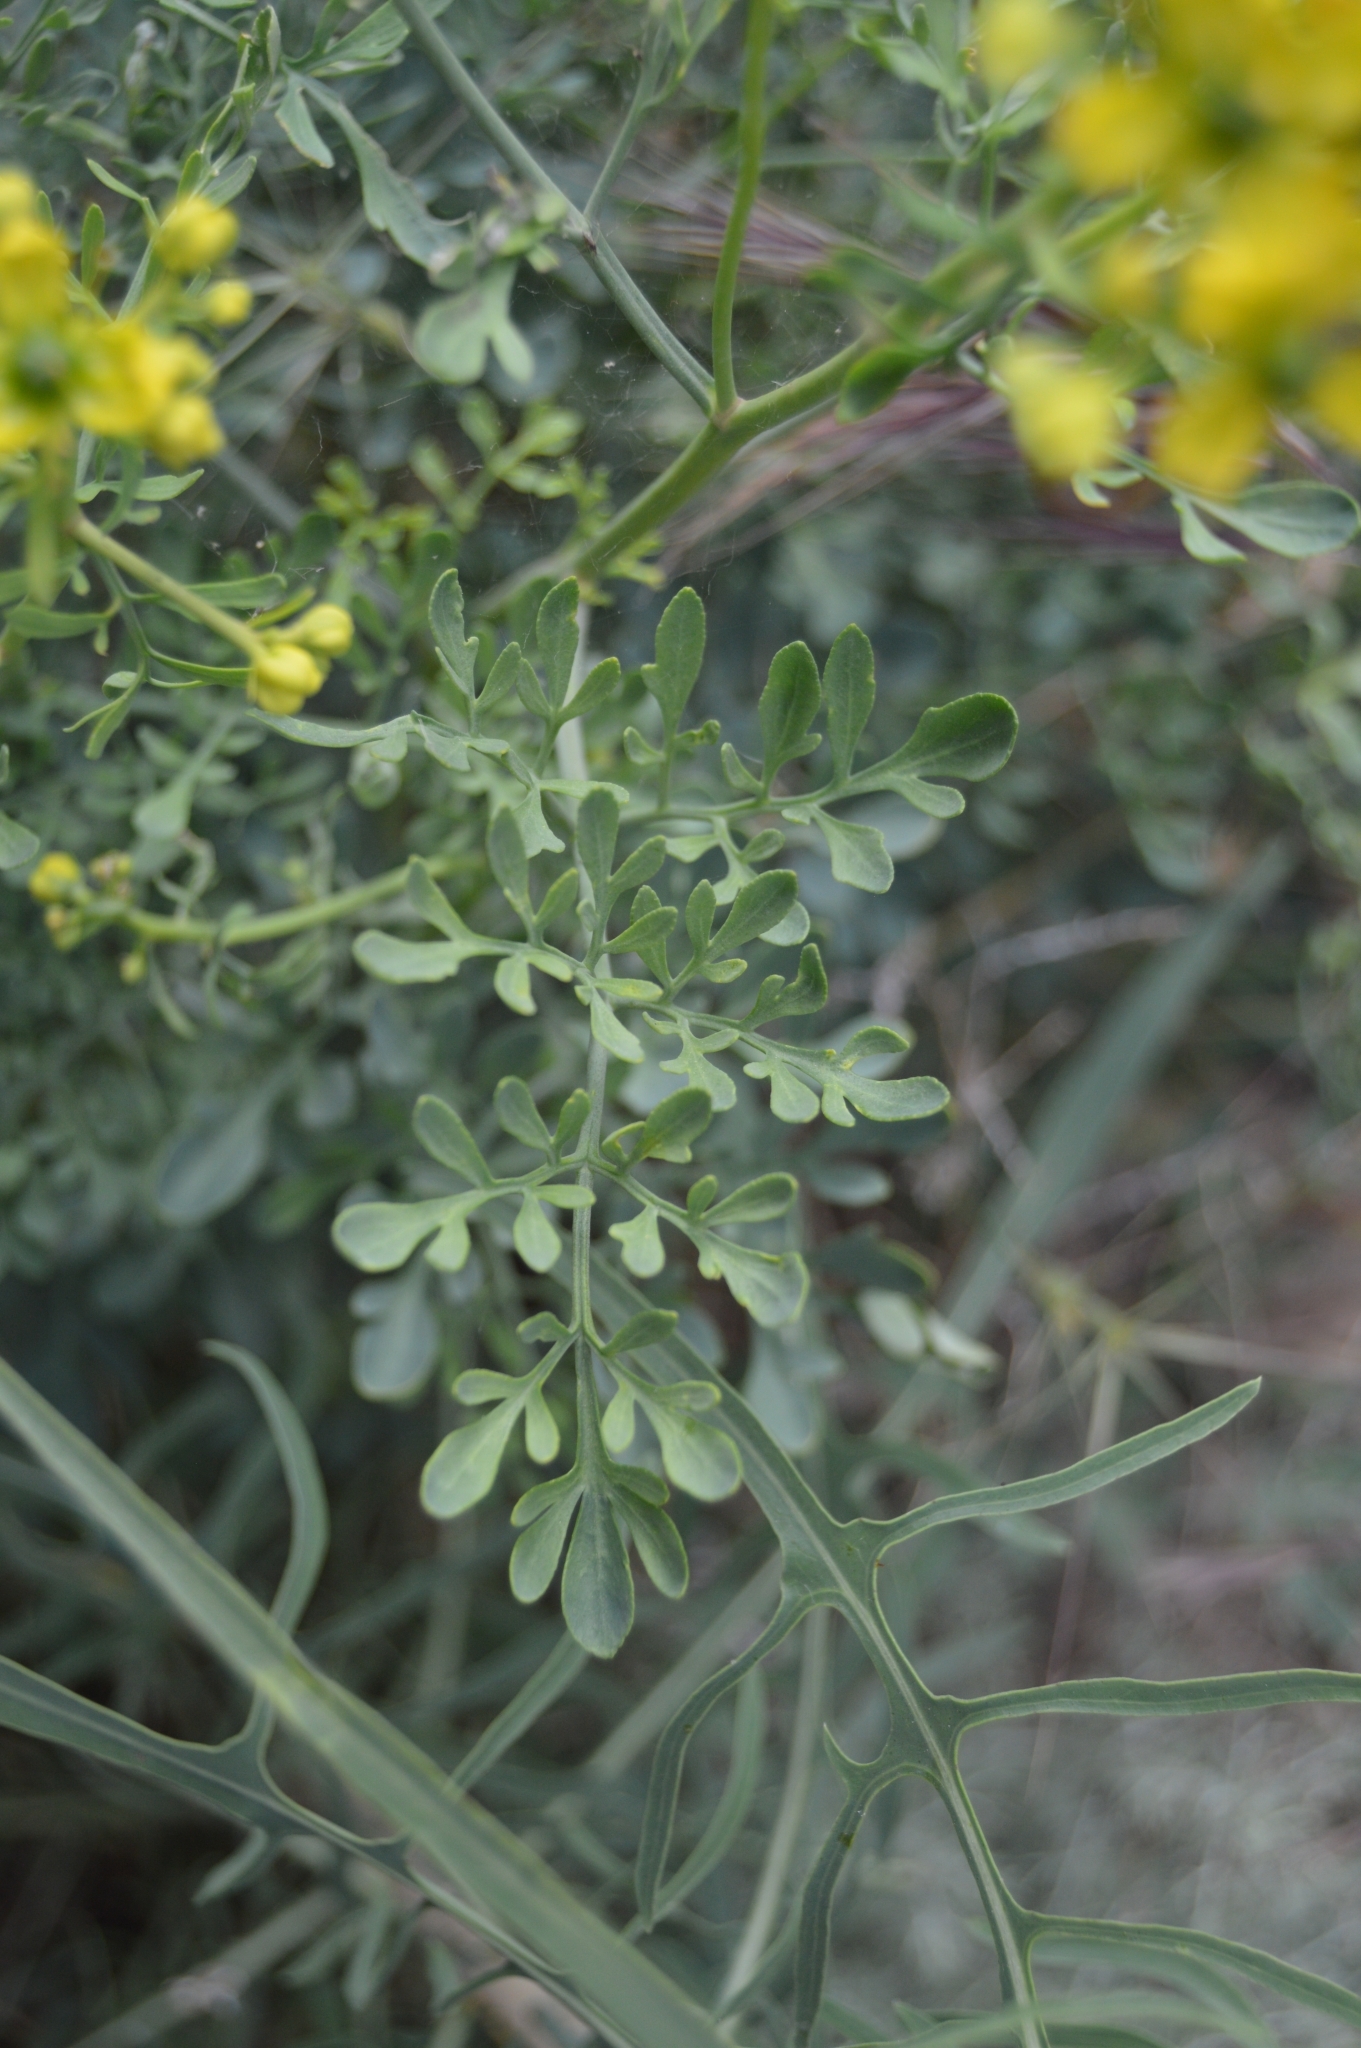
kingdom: Plantae
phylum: Tracheophyta
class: Magnoliopsida
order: Sapindales
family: Rutaceae
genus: Ruta
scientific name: Ruta
